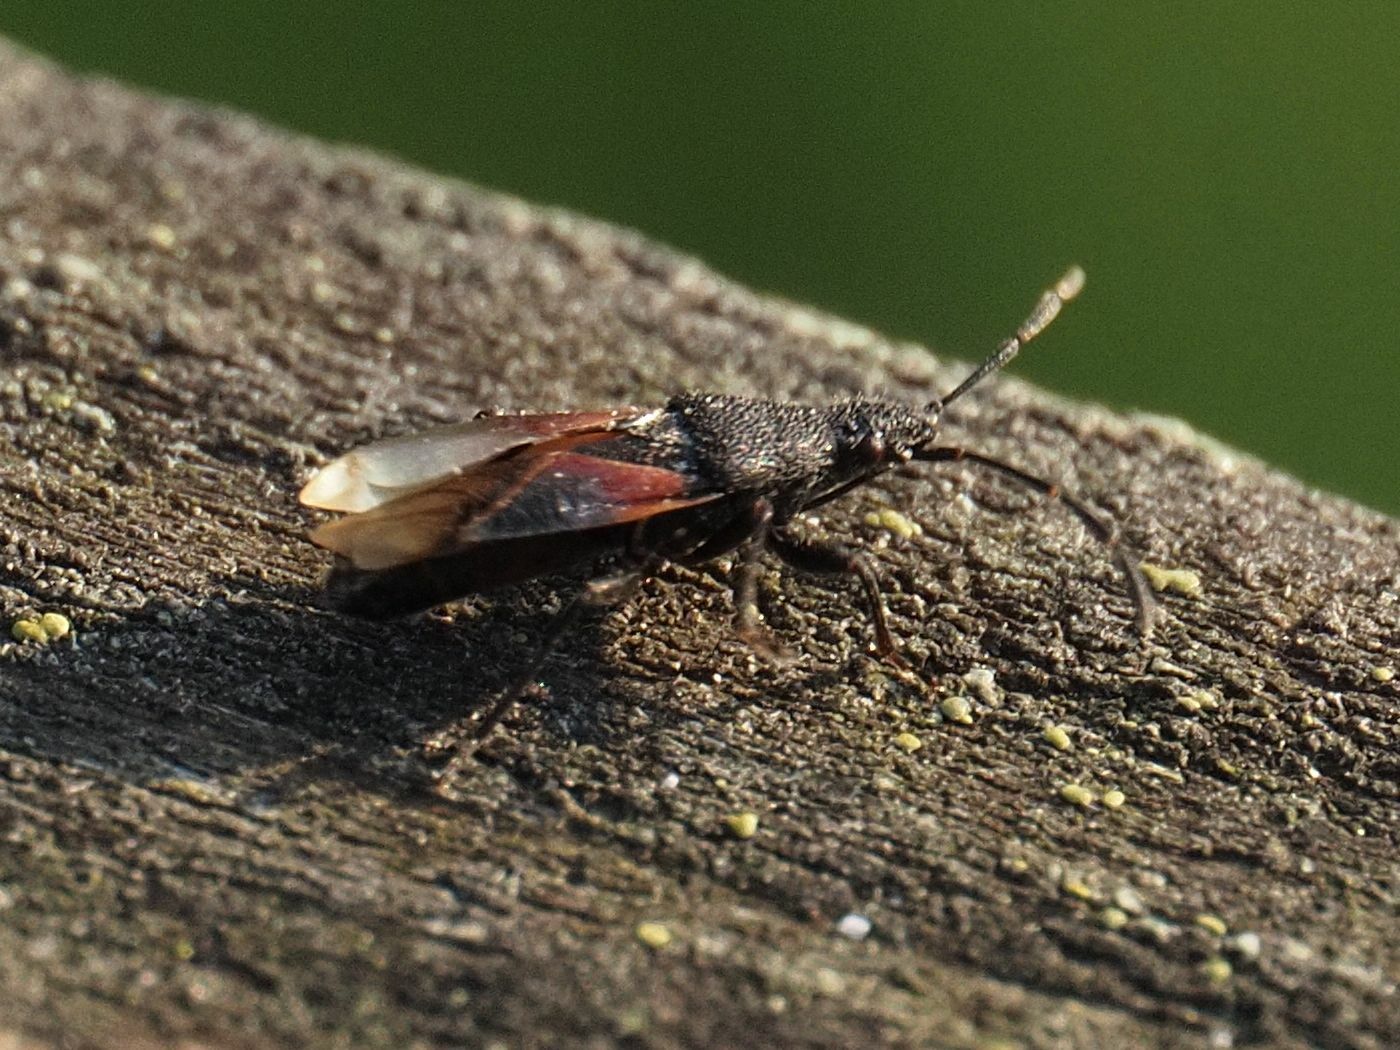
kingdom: Animalia
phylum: Arthropoda
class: Insecta
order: Hemiptera
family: Oxycarenidae
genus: Oxycarenus
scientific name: Oxycarenus lavaterae
